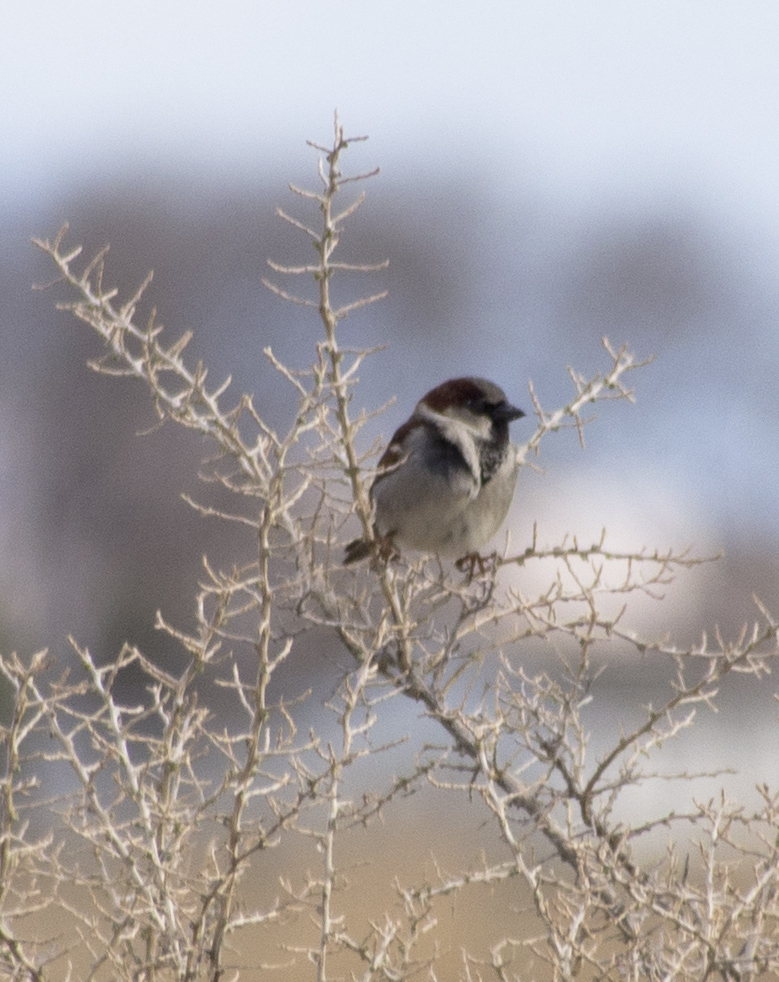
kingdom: Animalia
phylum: Chordata
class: Aves
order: Passeriformes
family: Passeridae
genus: Passer
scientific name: Passer domesticus
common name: House sparrow
